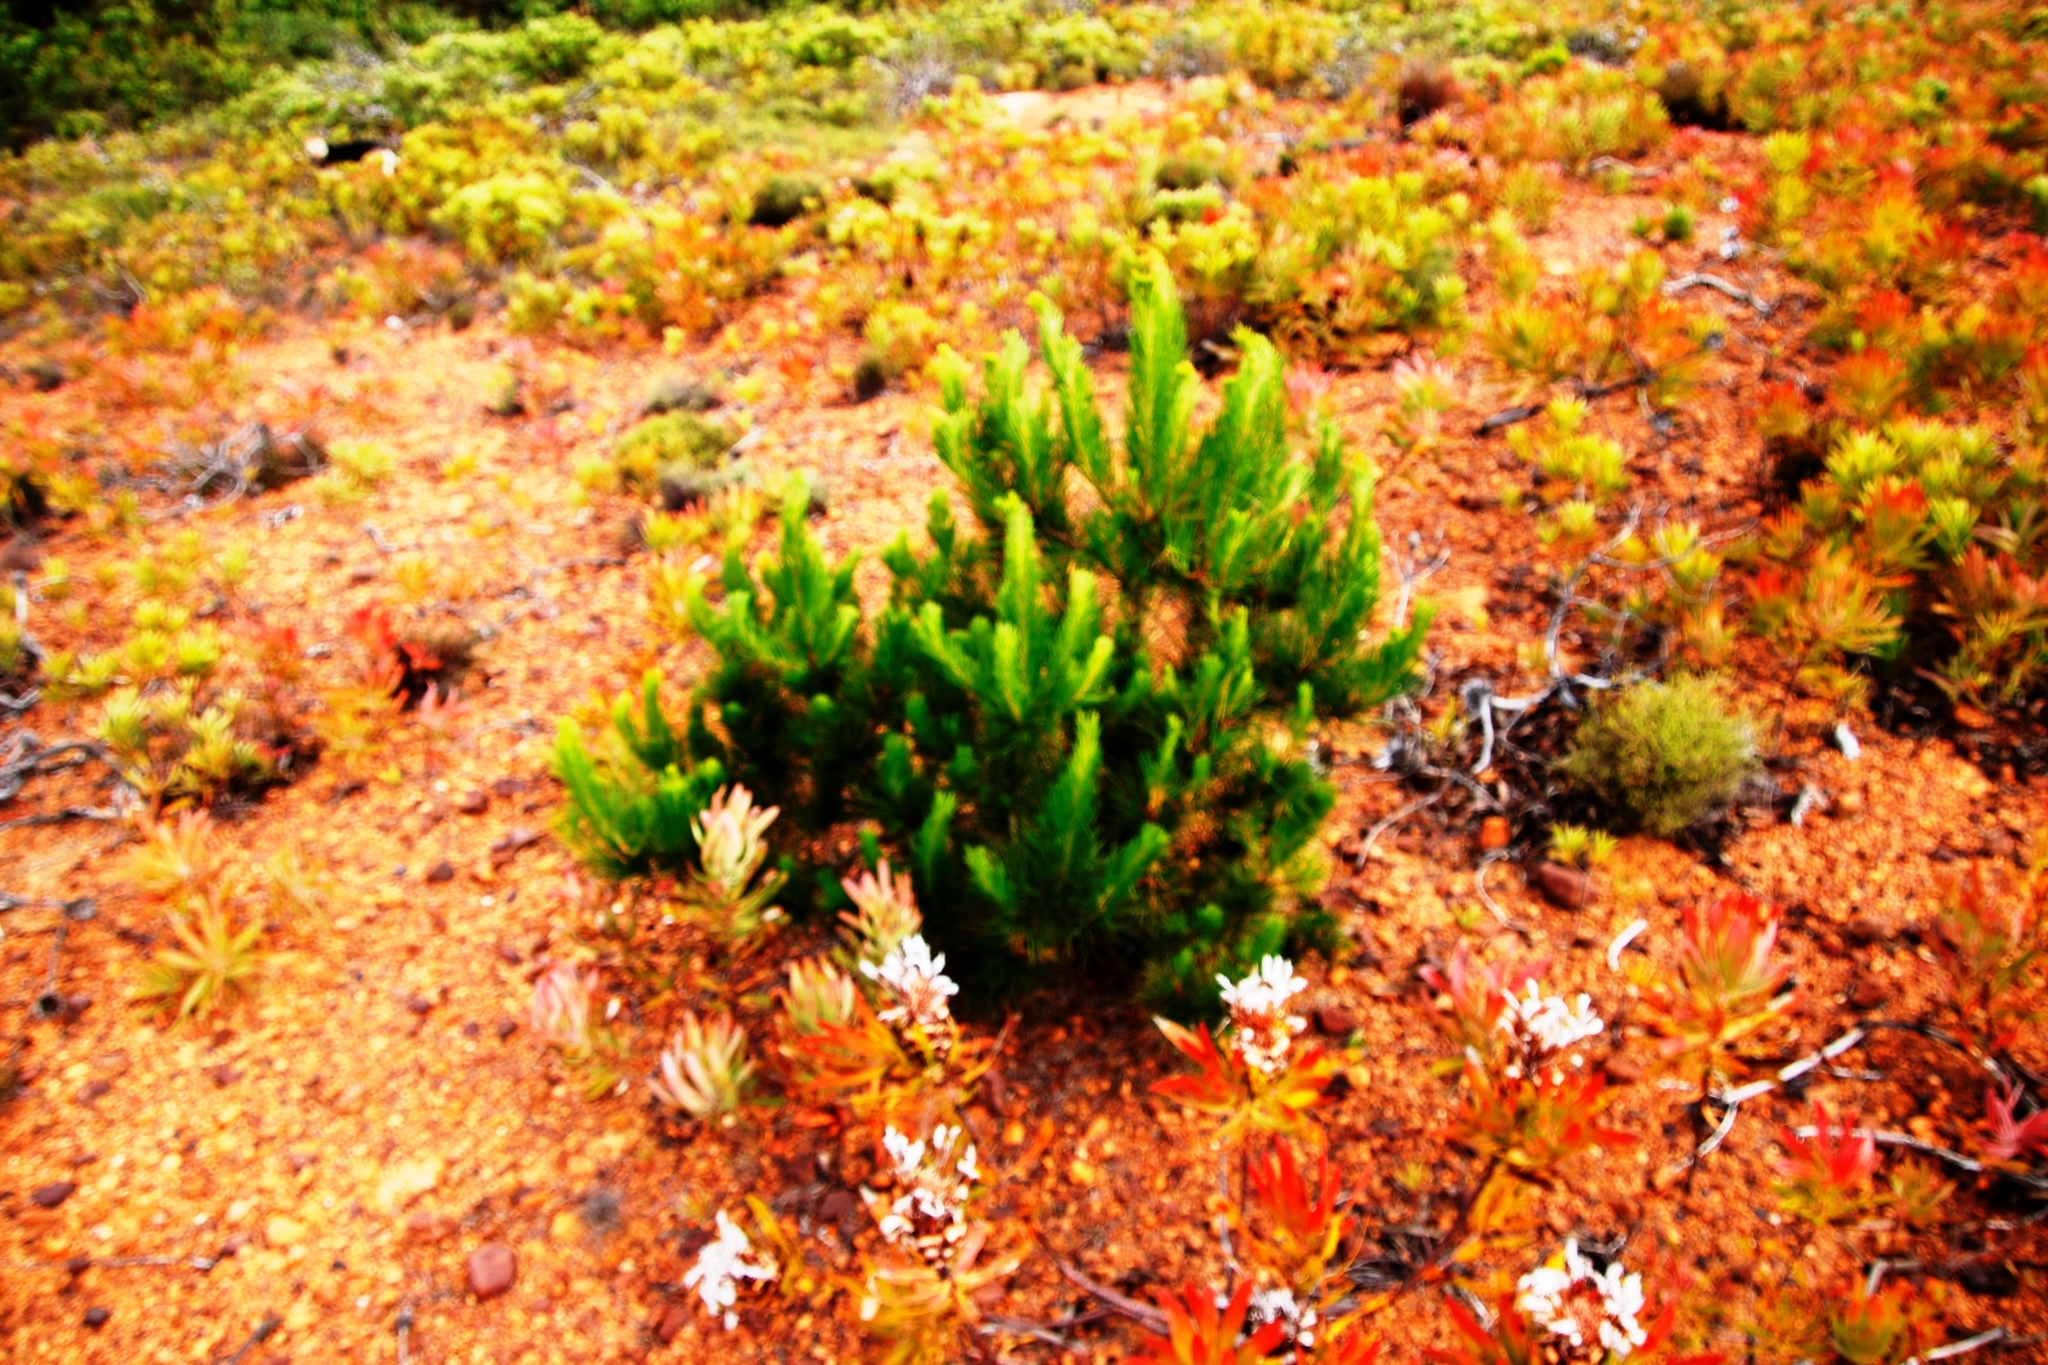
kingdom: Plantae
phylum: Tracheophyta
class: Pinopsida
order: Pinales
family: Pinaceae
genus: Pinus
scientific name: Pinus radiata
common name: Monterey pine
